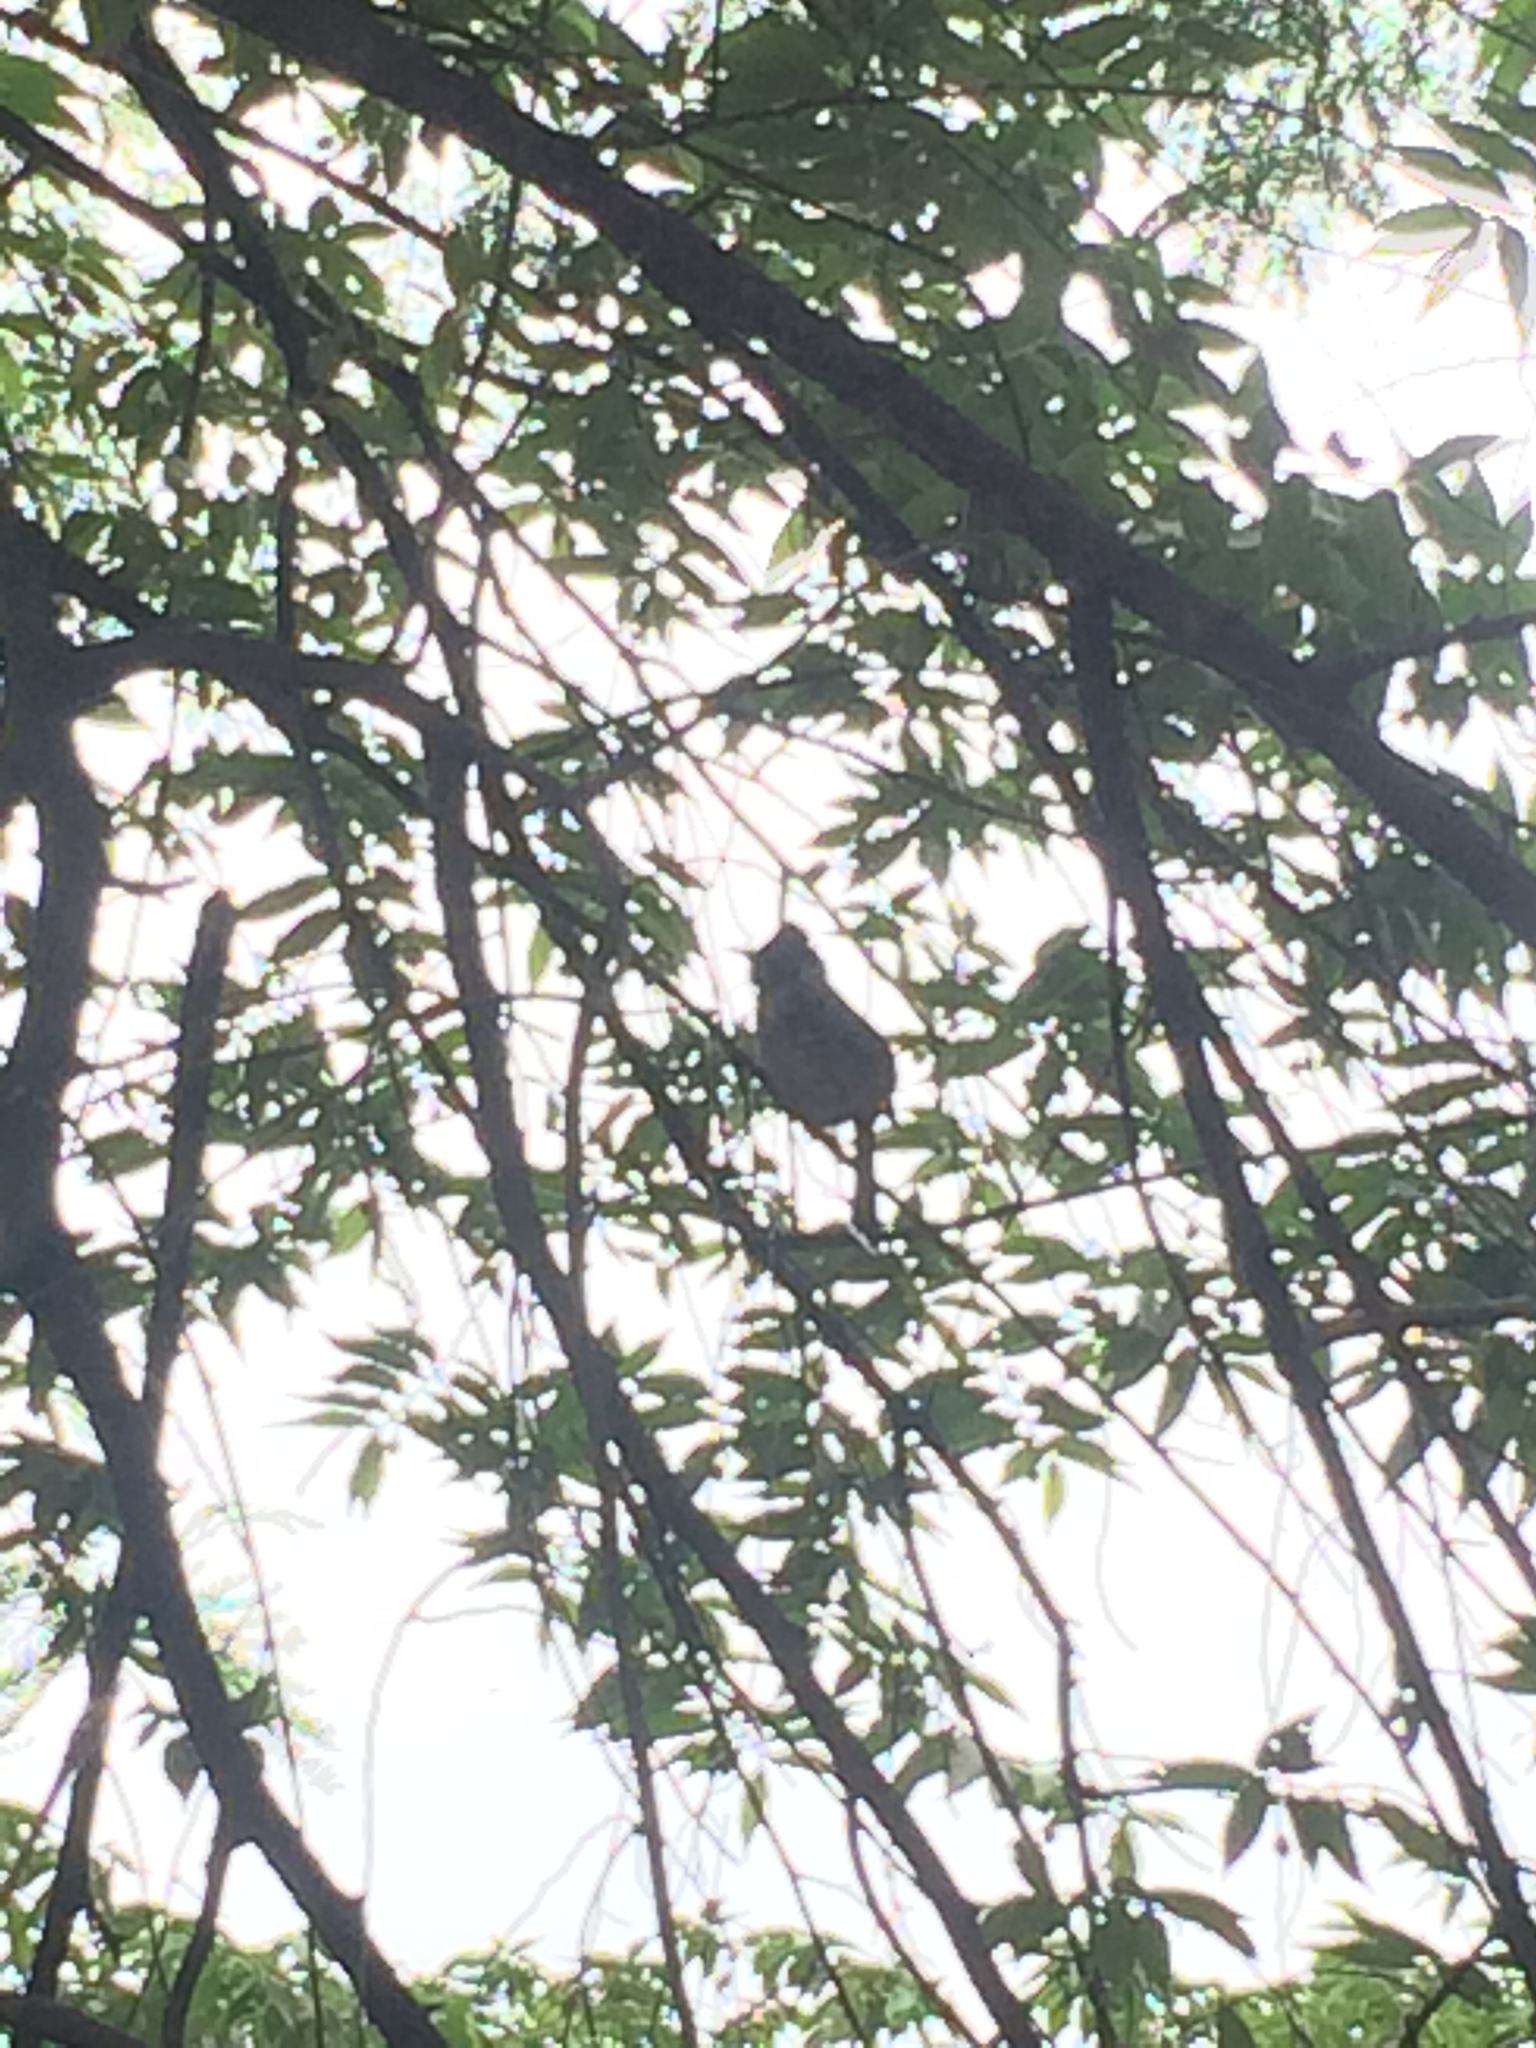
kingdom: Animalia
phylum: Chordata
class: Aves
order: Passeriformes
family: Pycnonotidae
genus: Pycnonotus
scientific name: Pycnonotus cafer
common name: Red-vented bulbul
